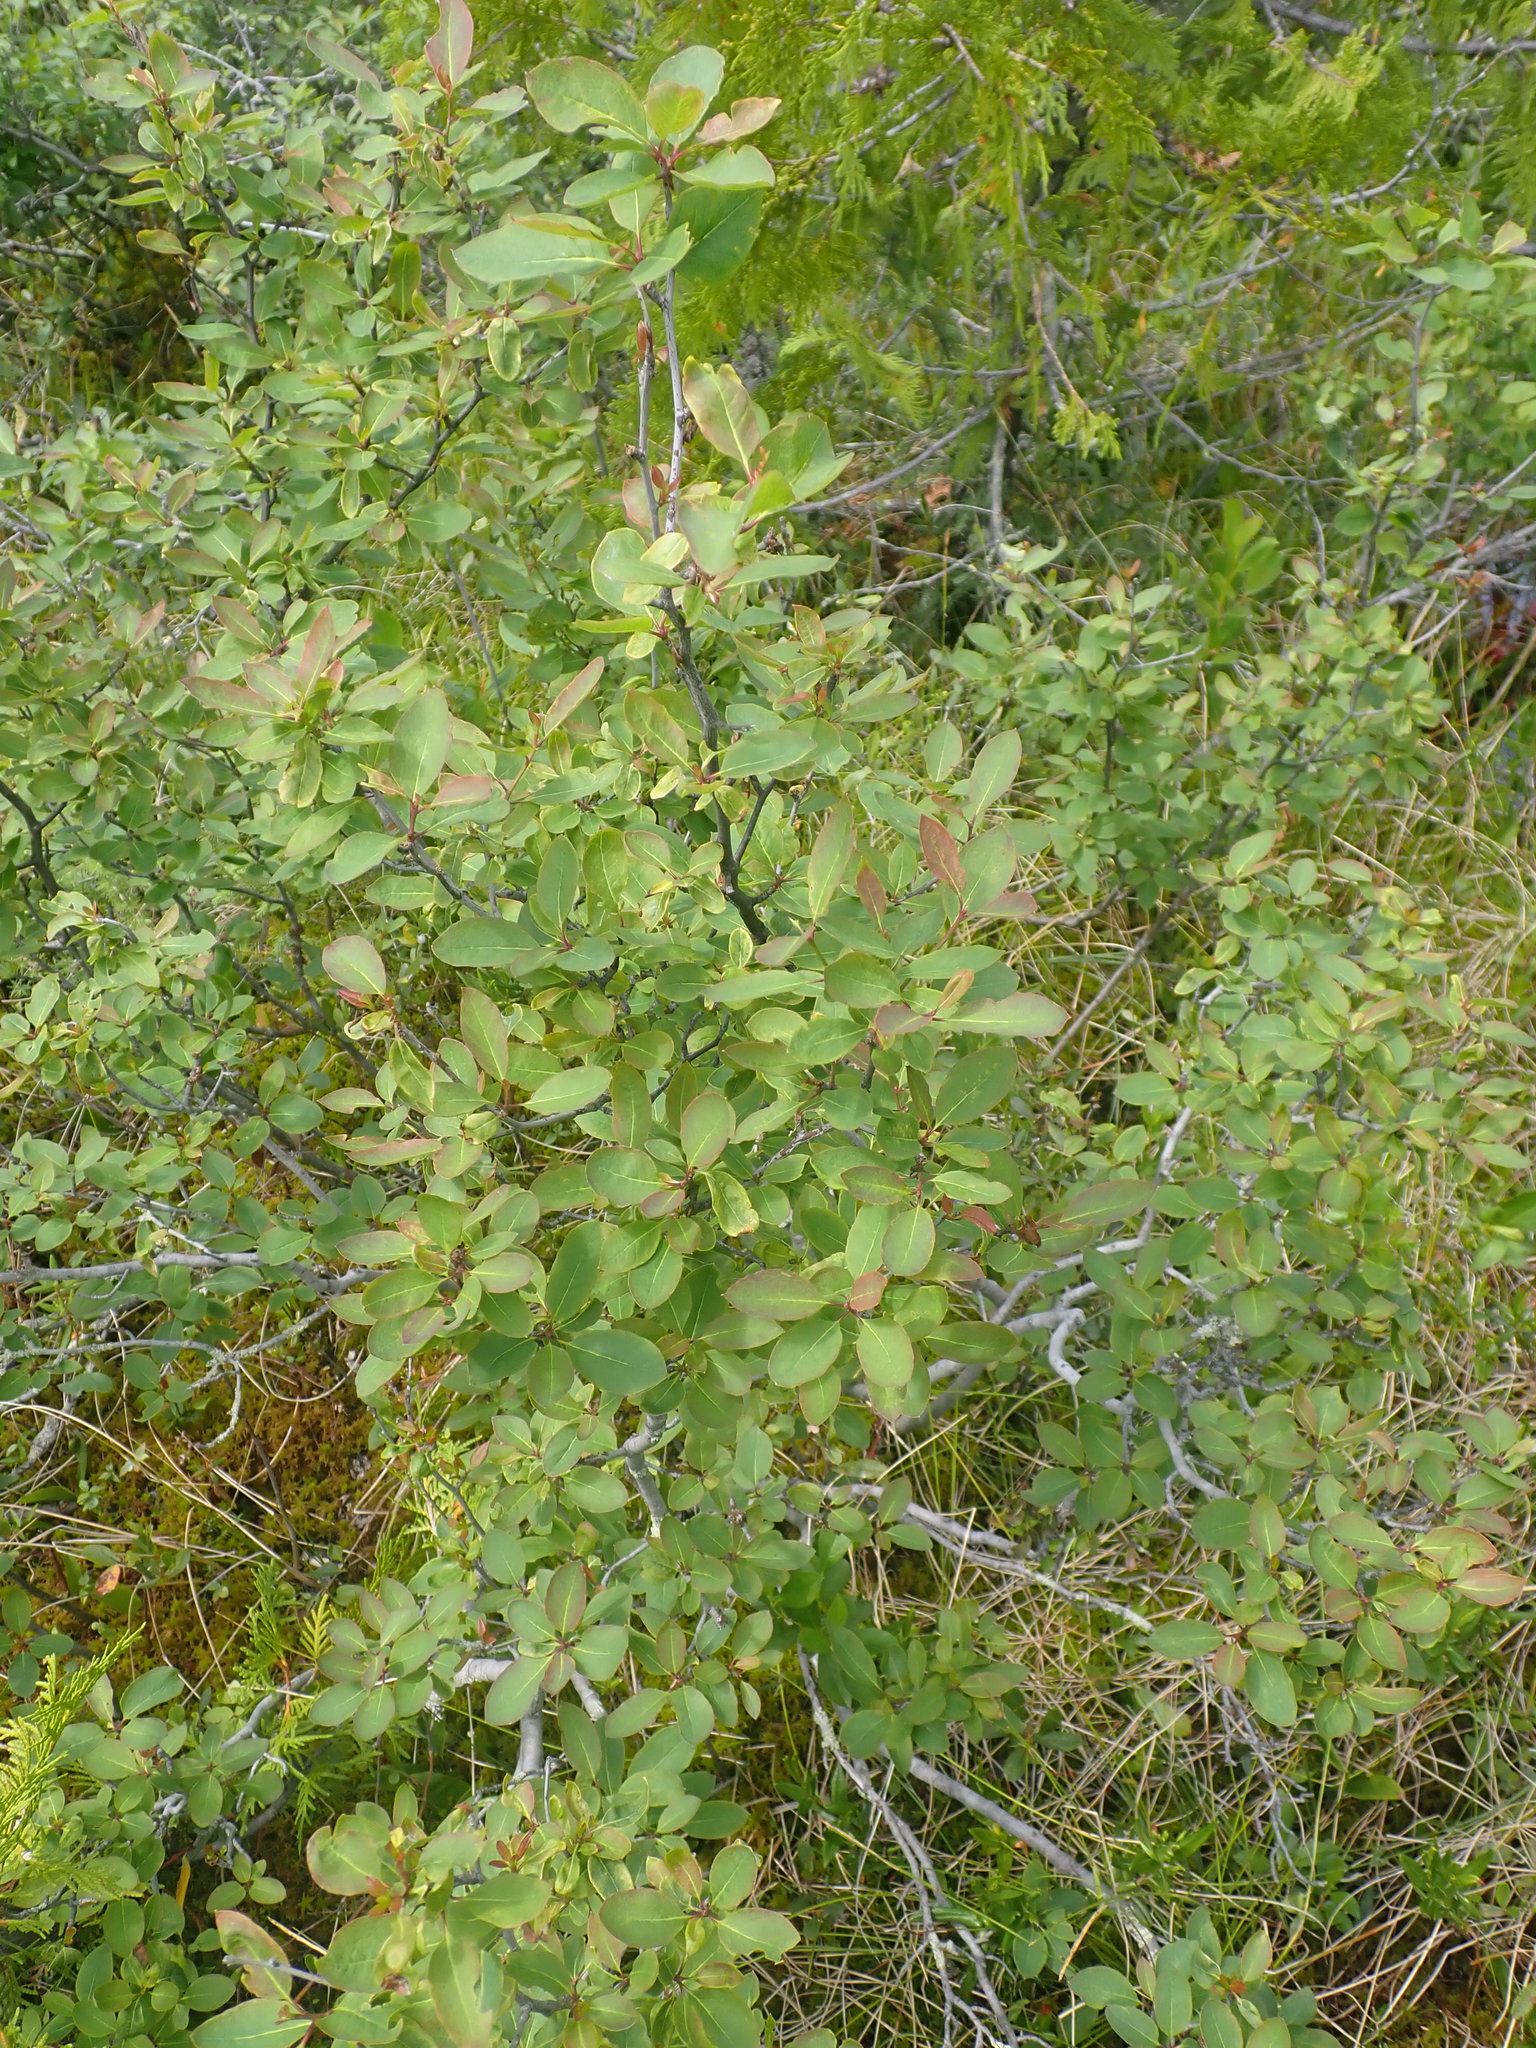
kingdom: Plantae
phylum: Tracheophyta
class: Magnoliopsida
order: Aquifoliales
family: Aquifoliaceae
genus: Ilex
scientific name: Ilex mucronata
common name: Catberry
